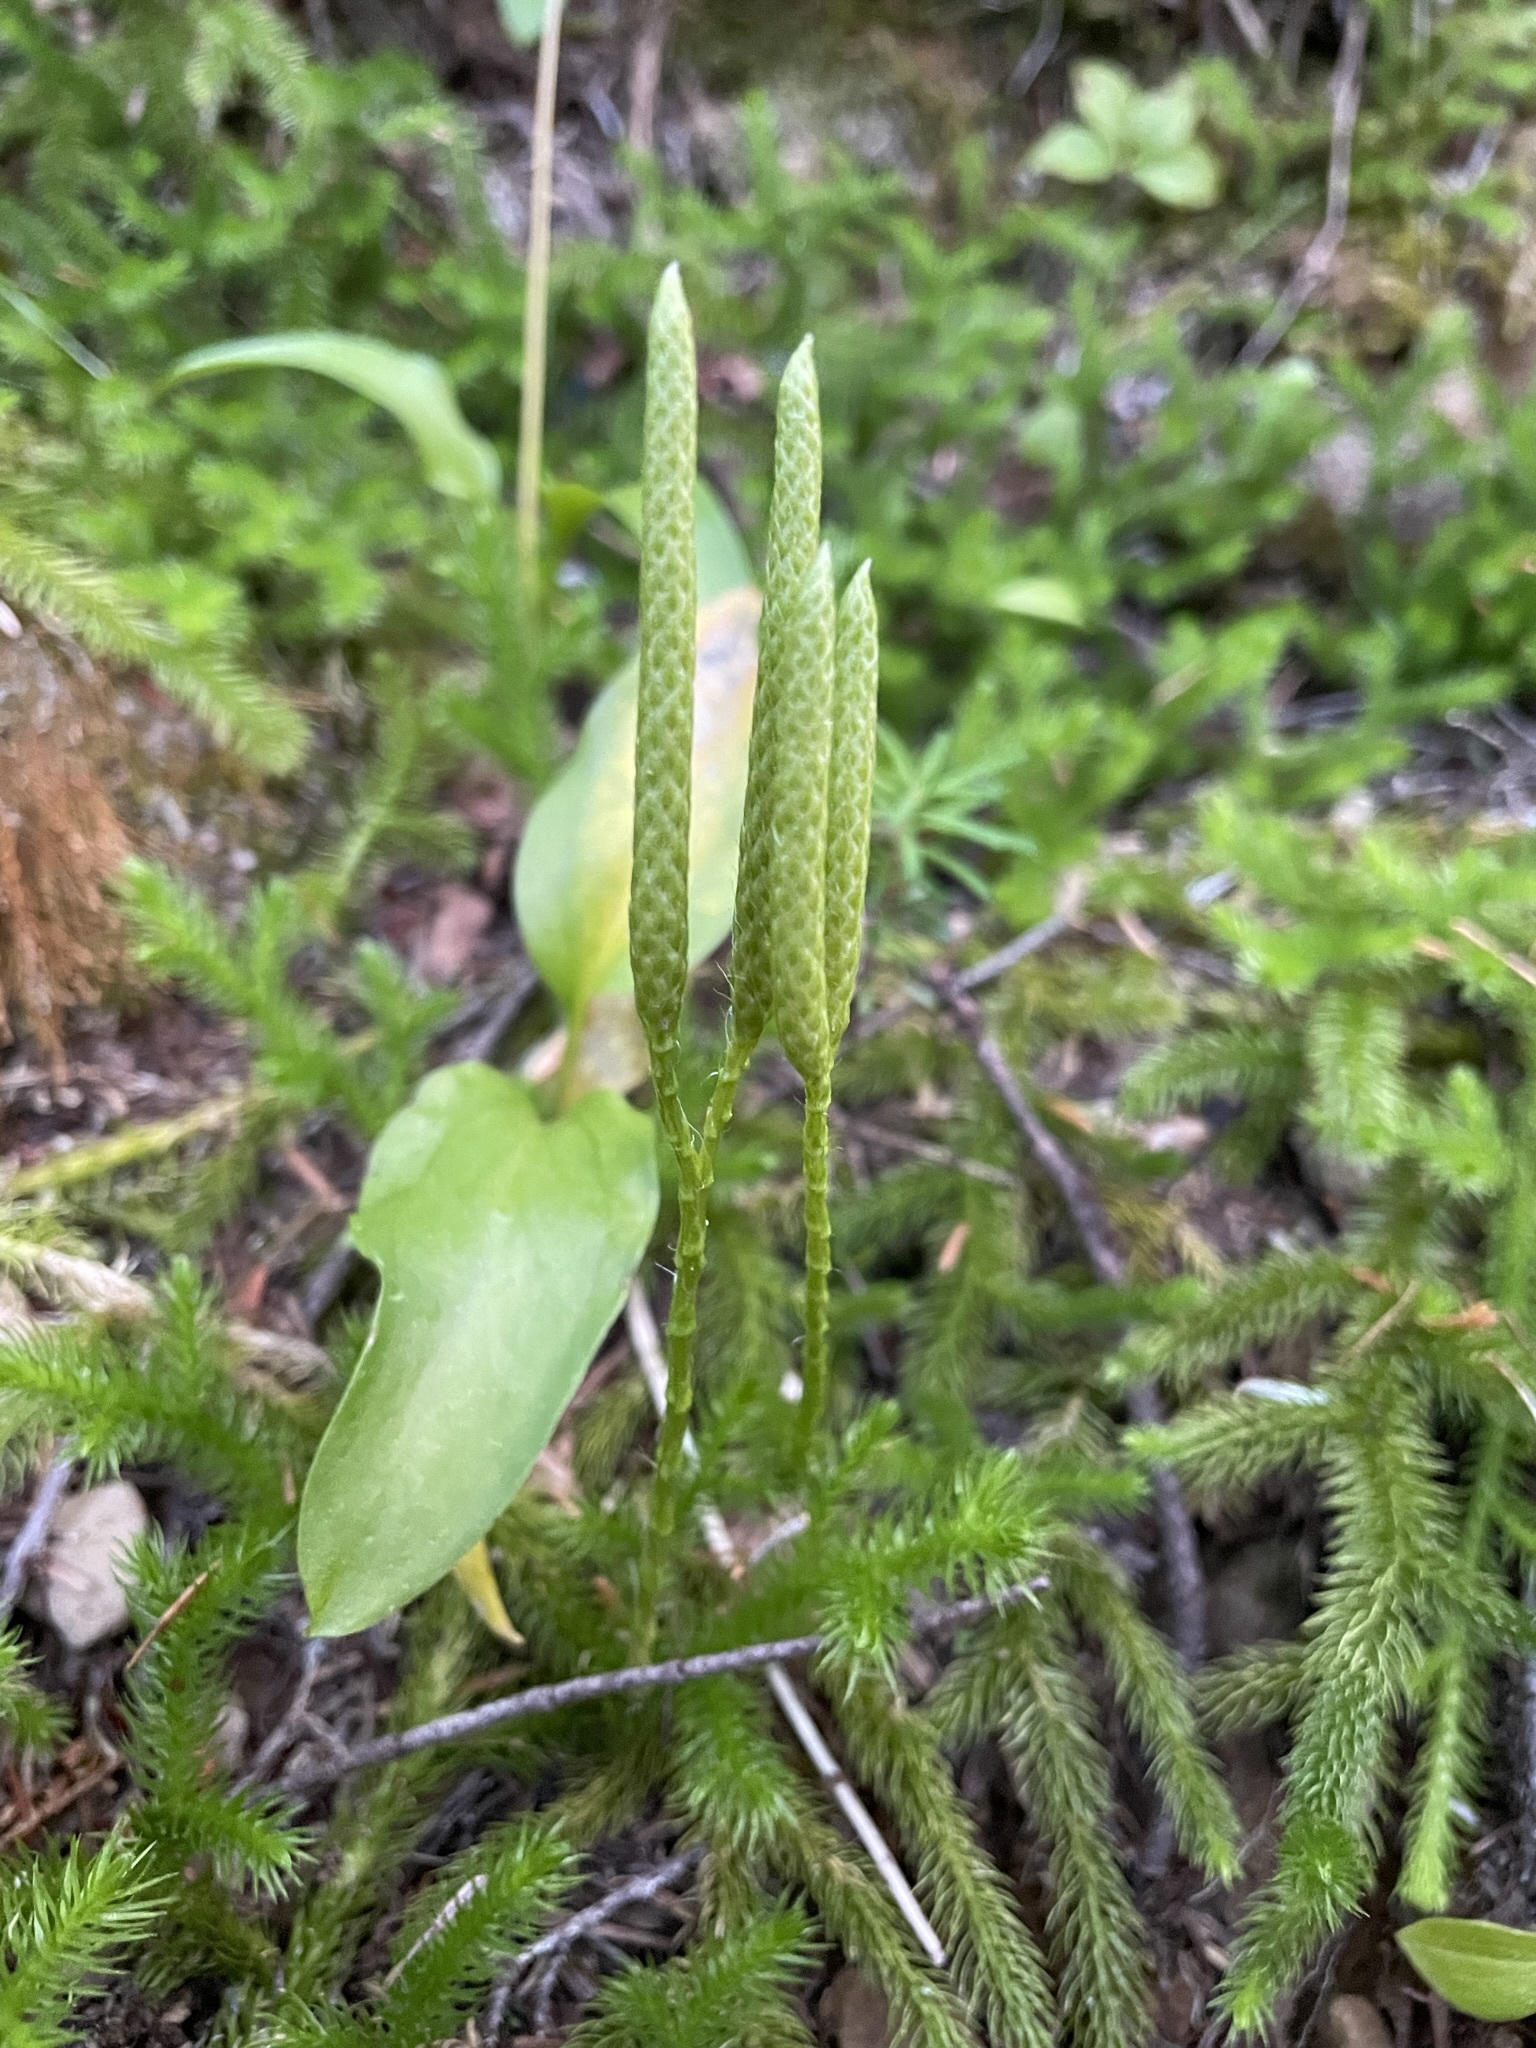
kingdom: Plantae
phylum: Tracheophyta
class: Lycopodiopsida
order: Lycopodiales
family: Lycopodiaceae
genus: Lycopodium
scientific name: Lycopodium clavatum
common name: Stag's-horn clubmoss
